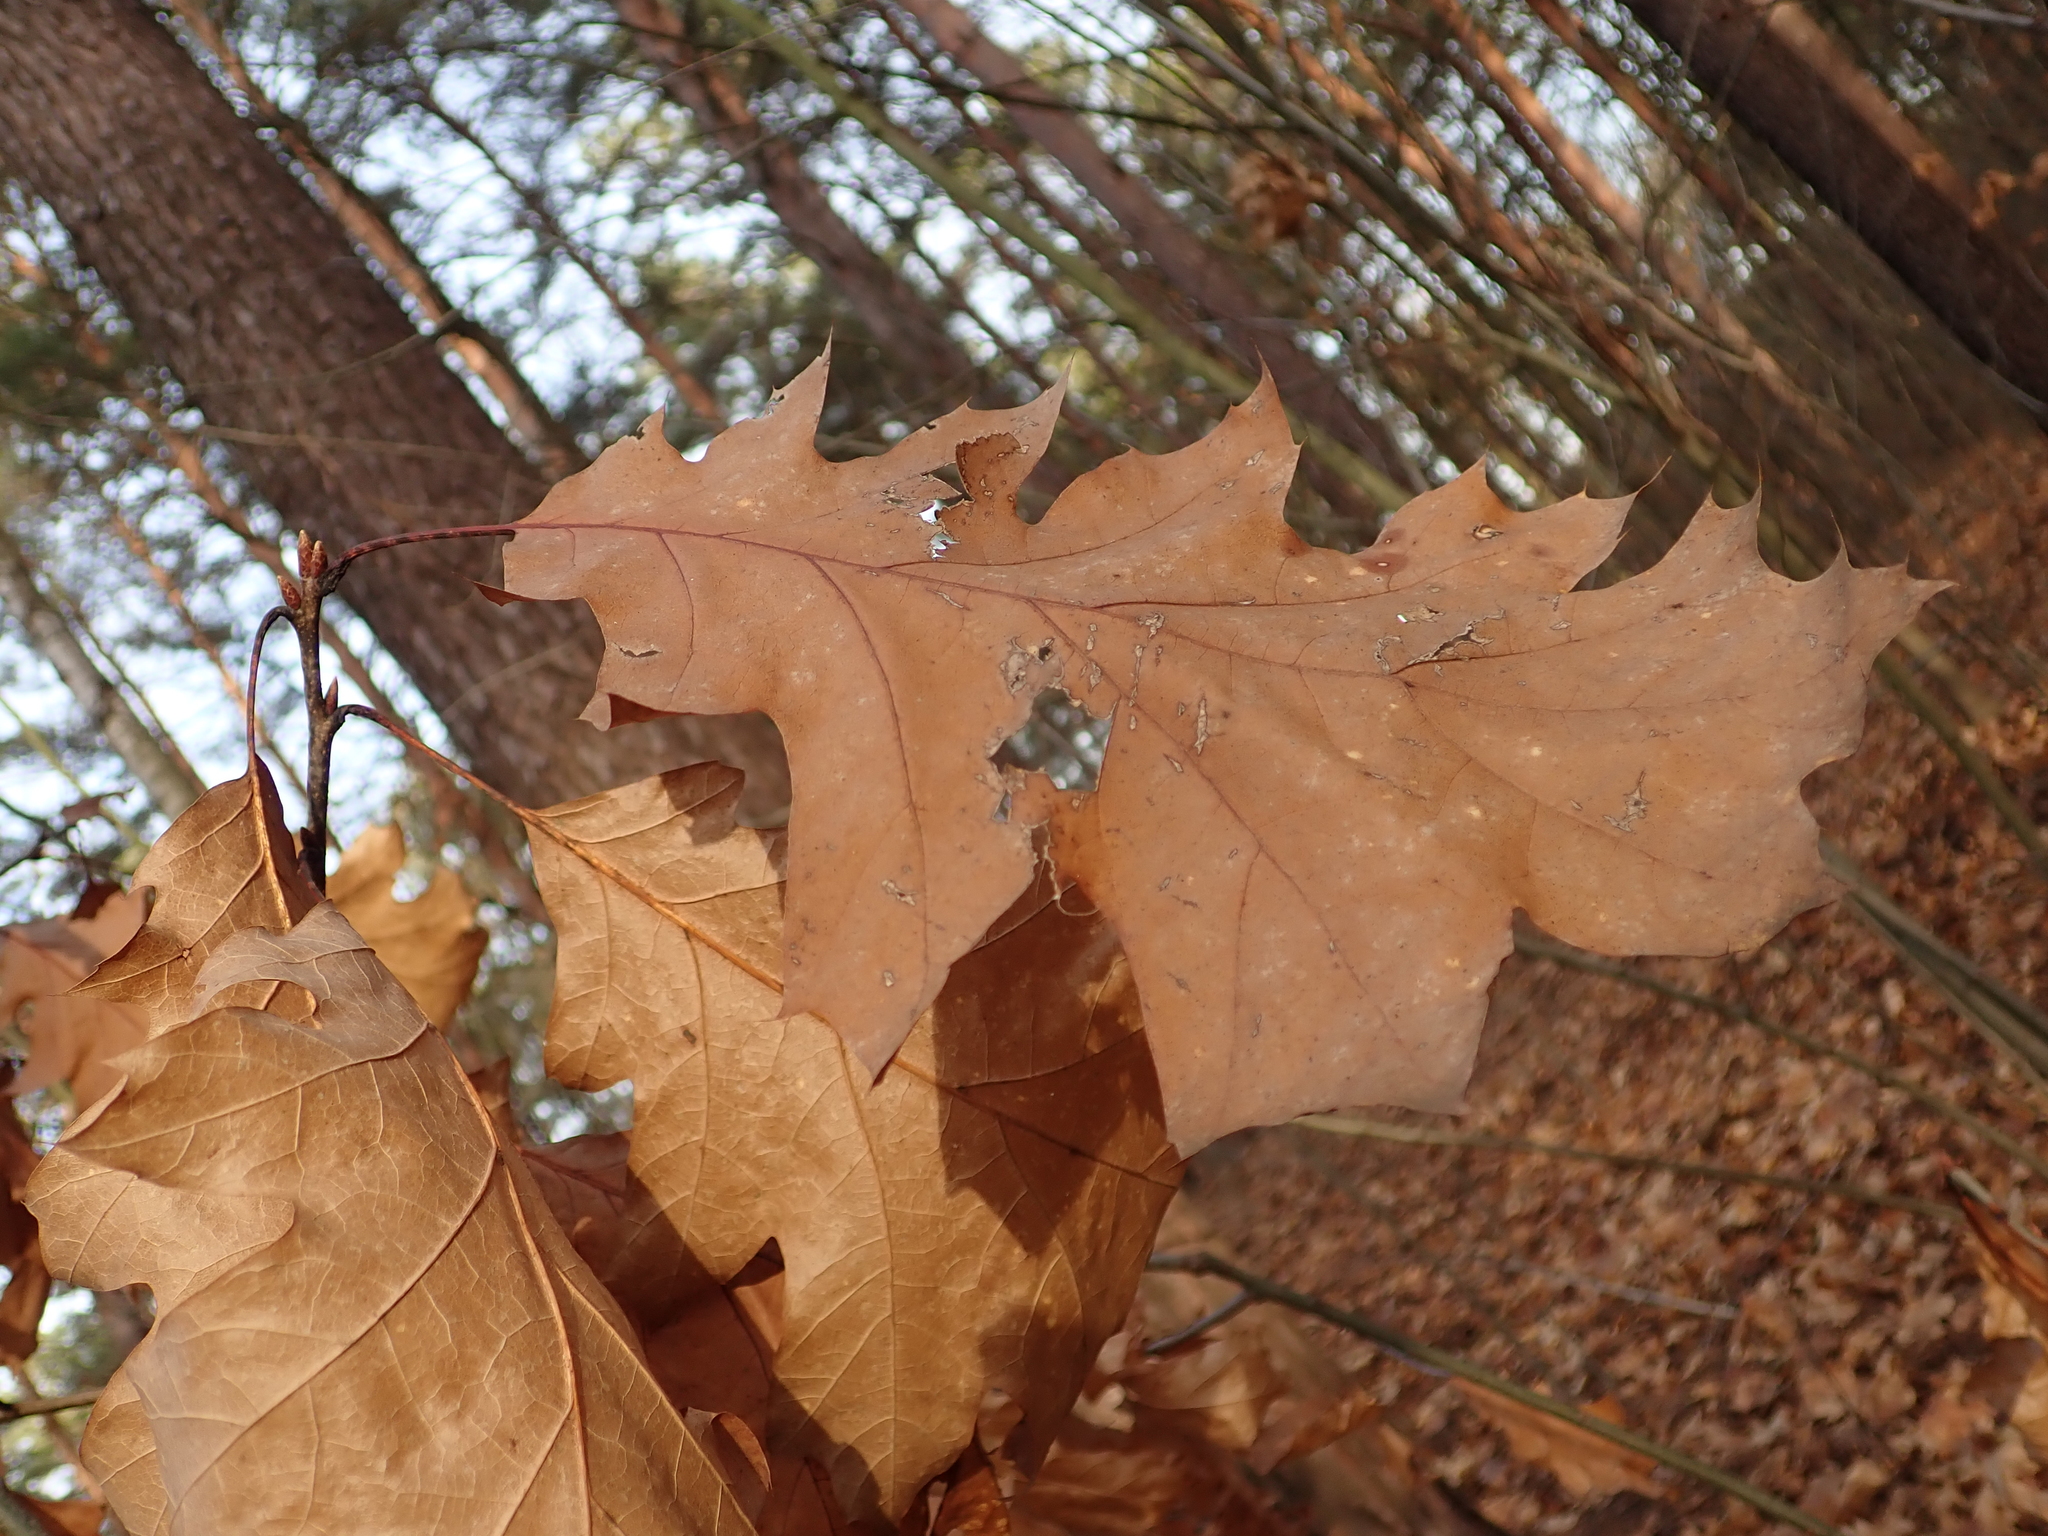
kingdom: Plantae
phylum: Tracheophyta
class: Magnoliopsida
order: Fagales
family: Fagaceae
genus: Quercus
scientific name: Quercus rubra
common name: Red oak
